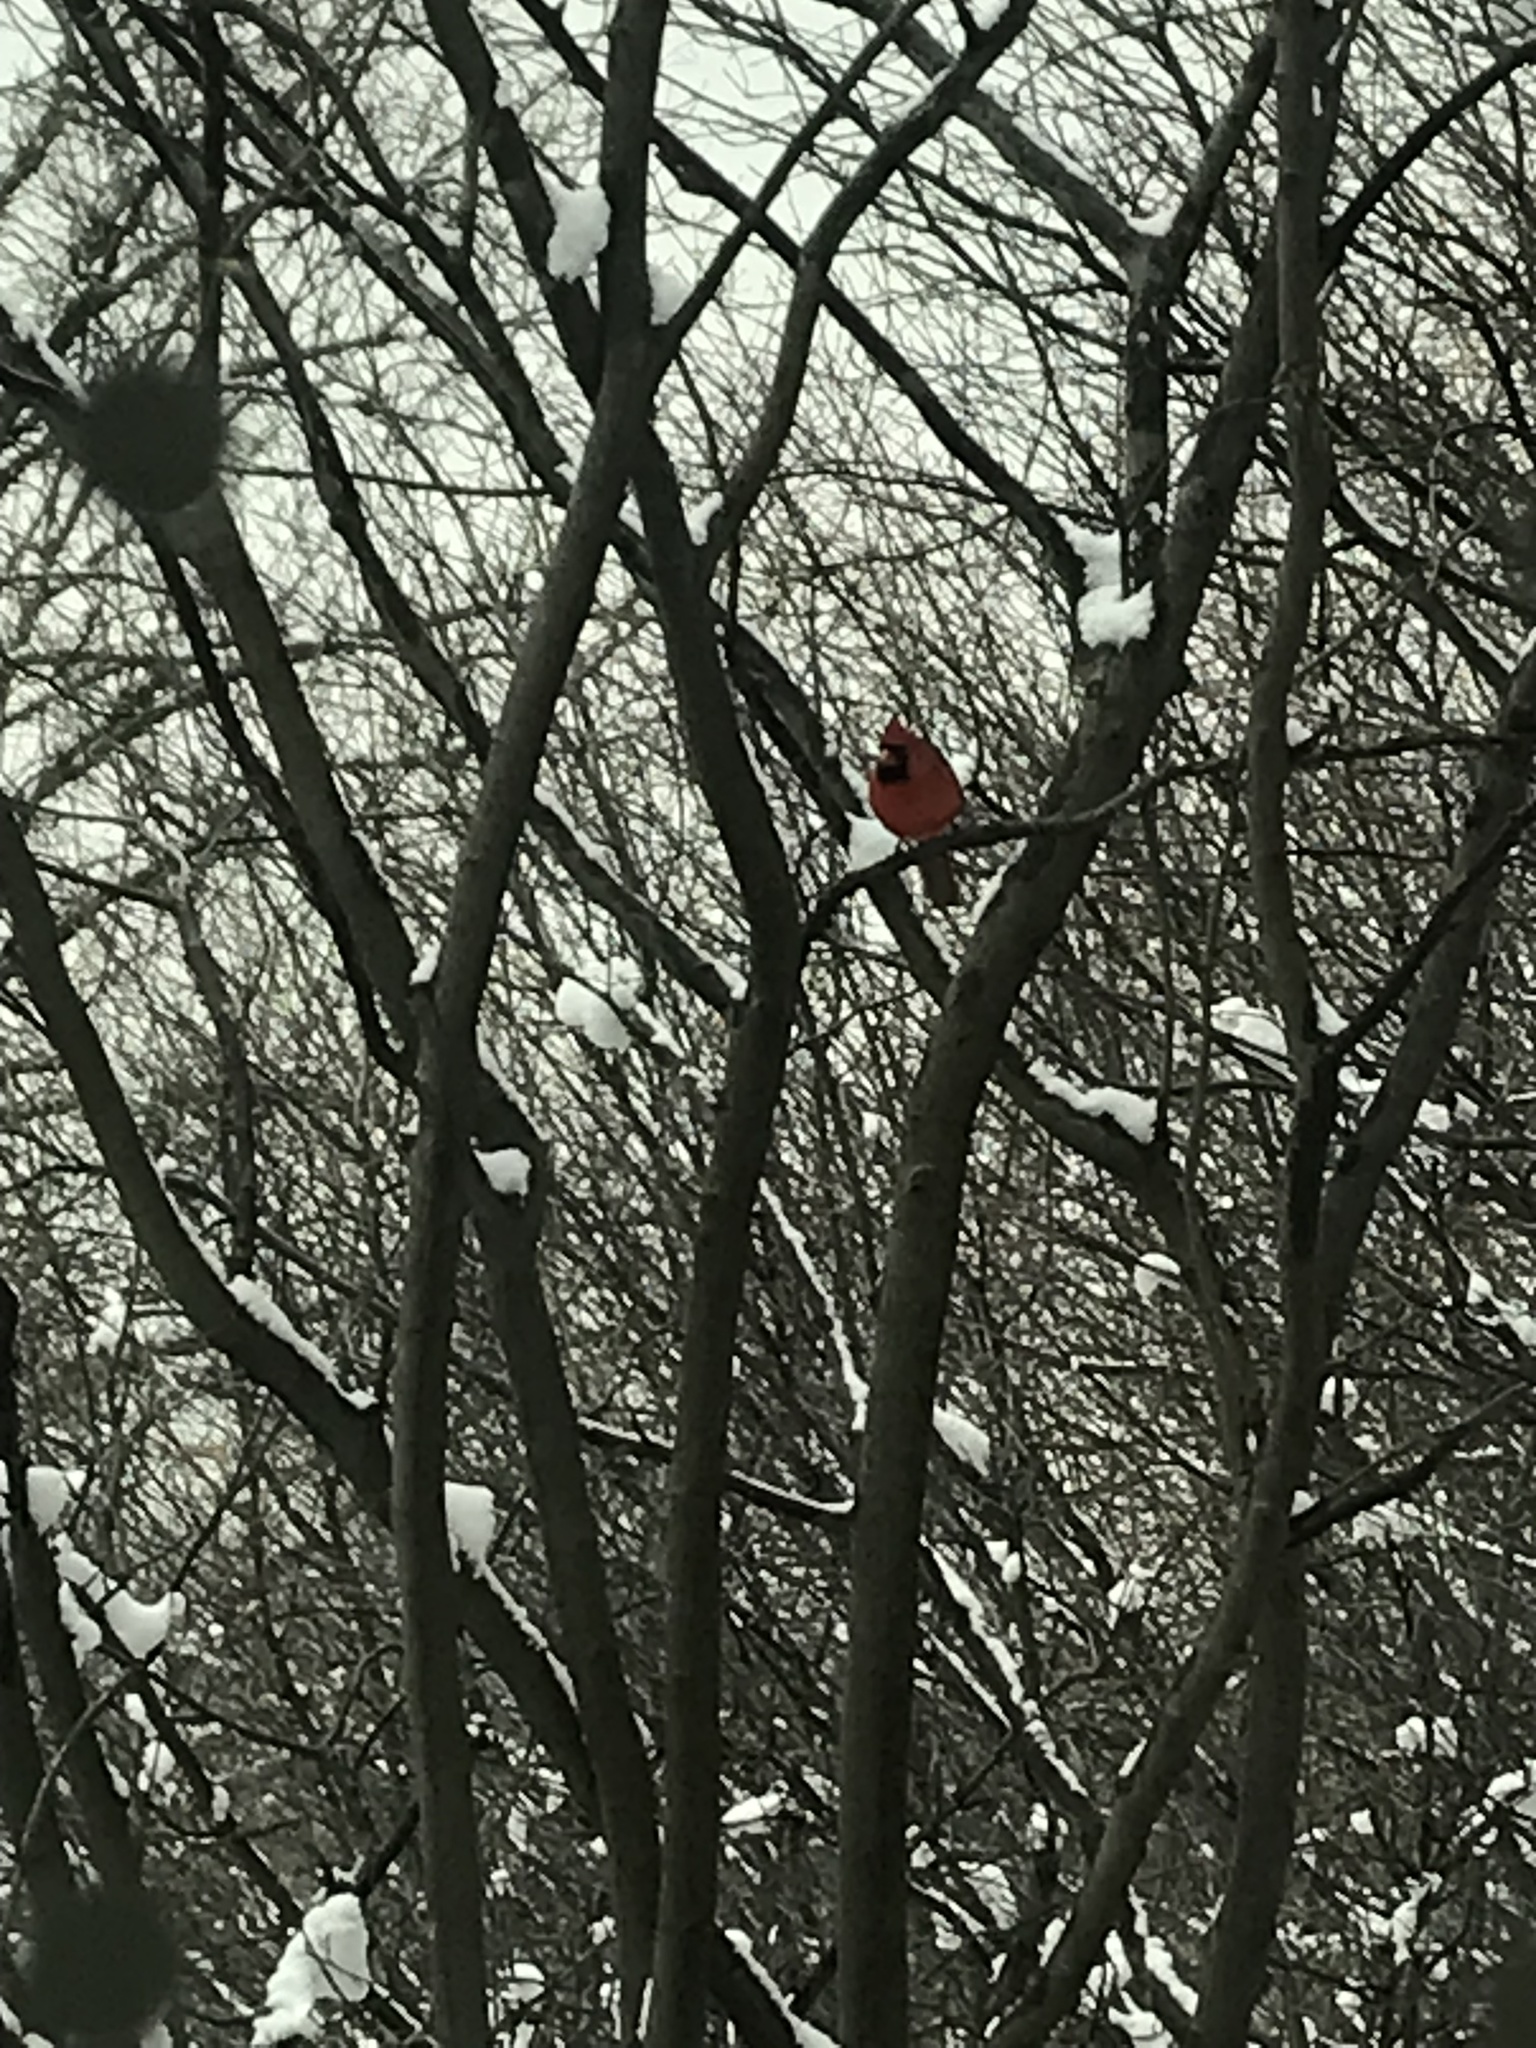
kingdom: Animalia
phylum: Chordata
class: Aves
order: Passeriformes
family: Cardinalidae
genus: Cardinalis
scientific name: Cardinalis cardinalis
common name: Northern cardinal
